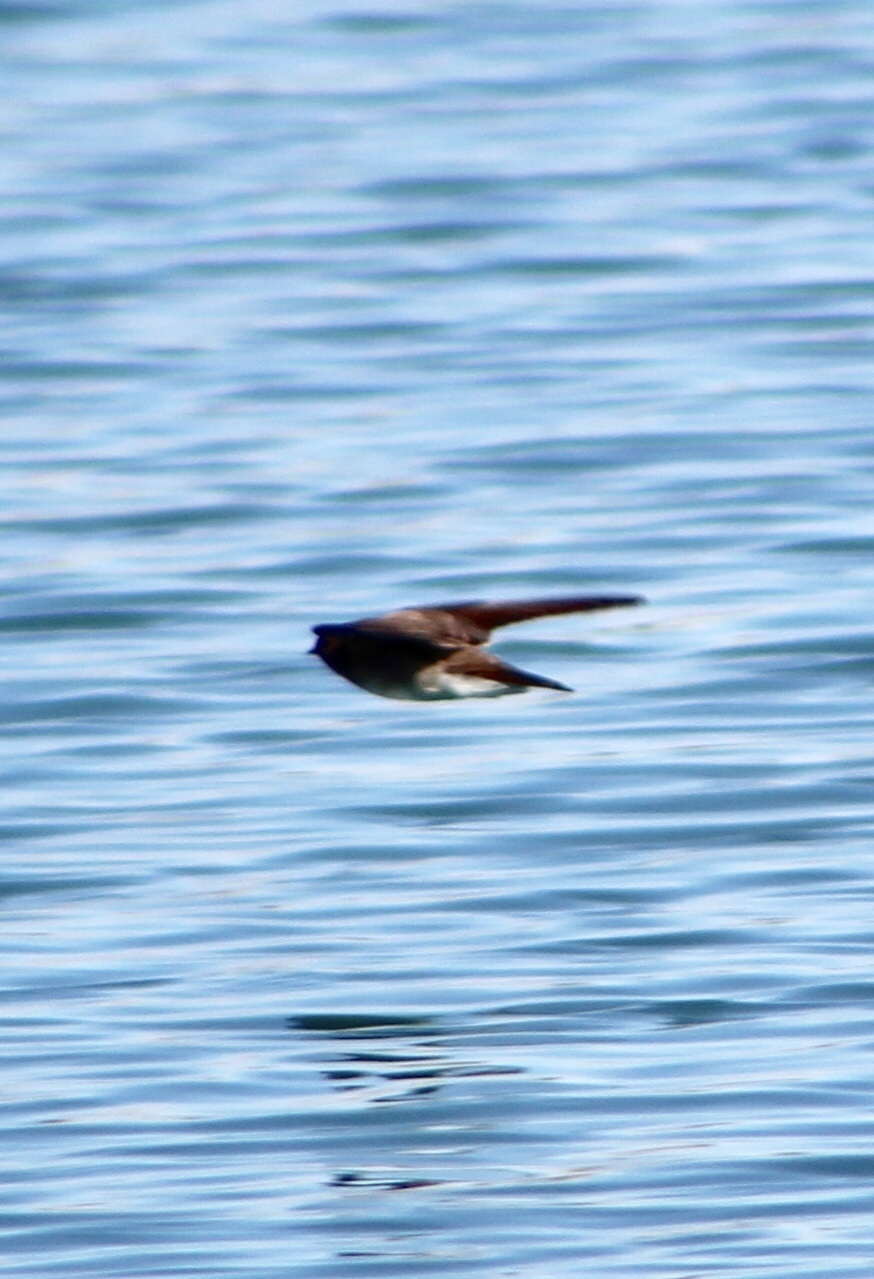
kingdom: Animalia
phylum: Chordata
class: Aves
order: Passeriformes
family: Hirundinidae
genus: Stelgidopteryx
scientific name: Stelgidopteryx serripennis
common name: Northern rough-winged swallow
